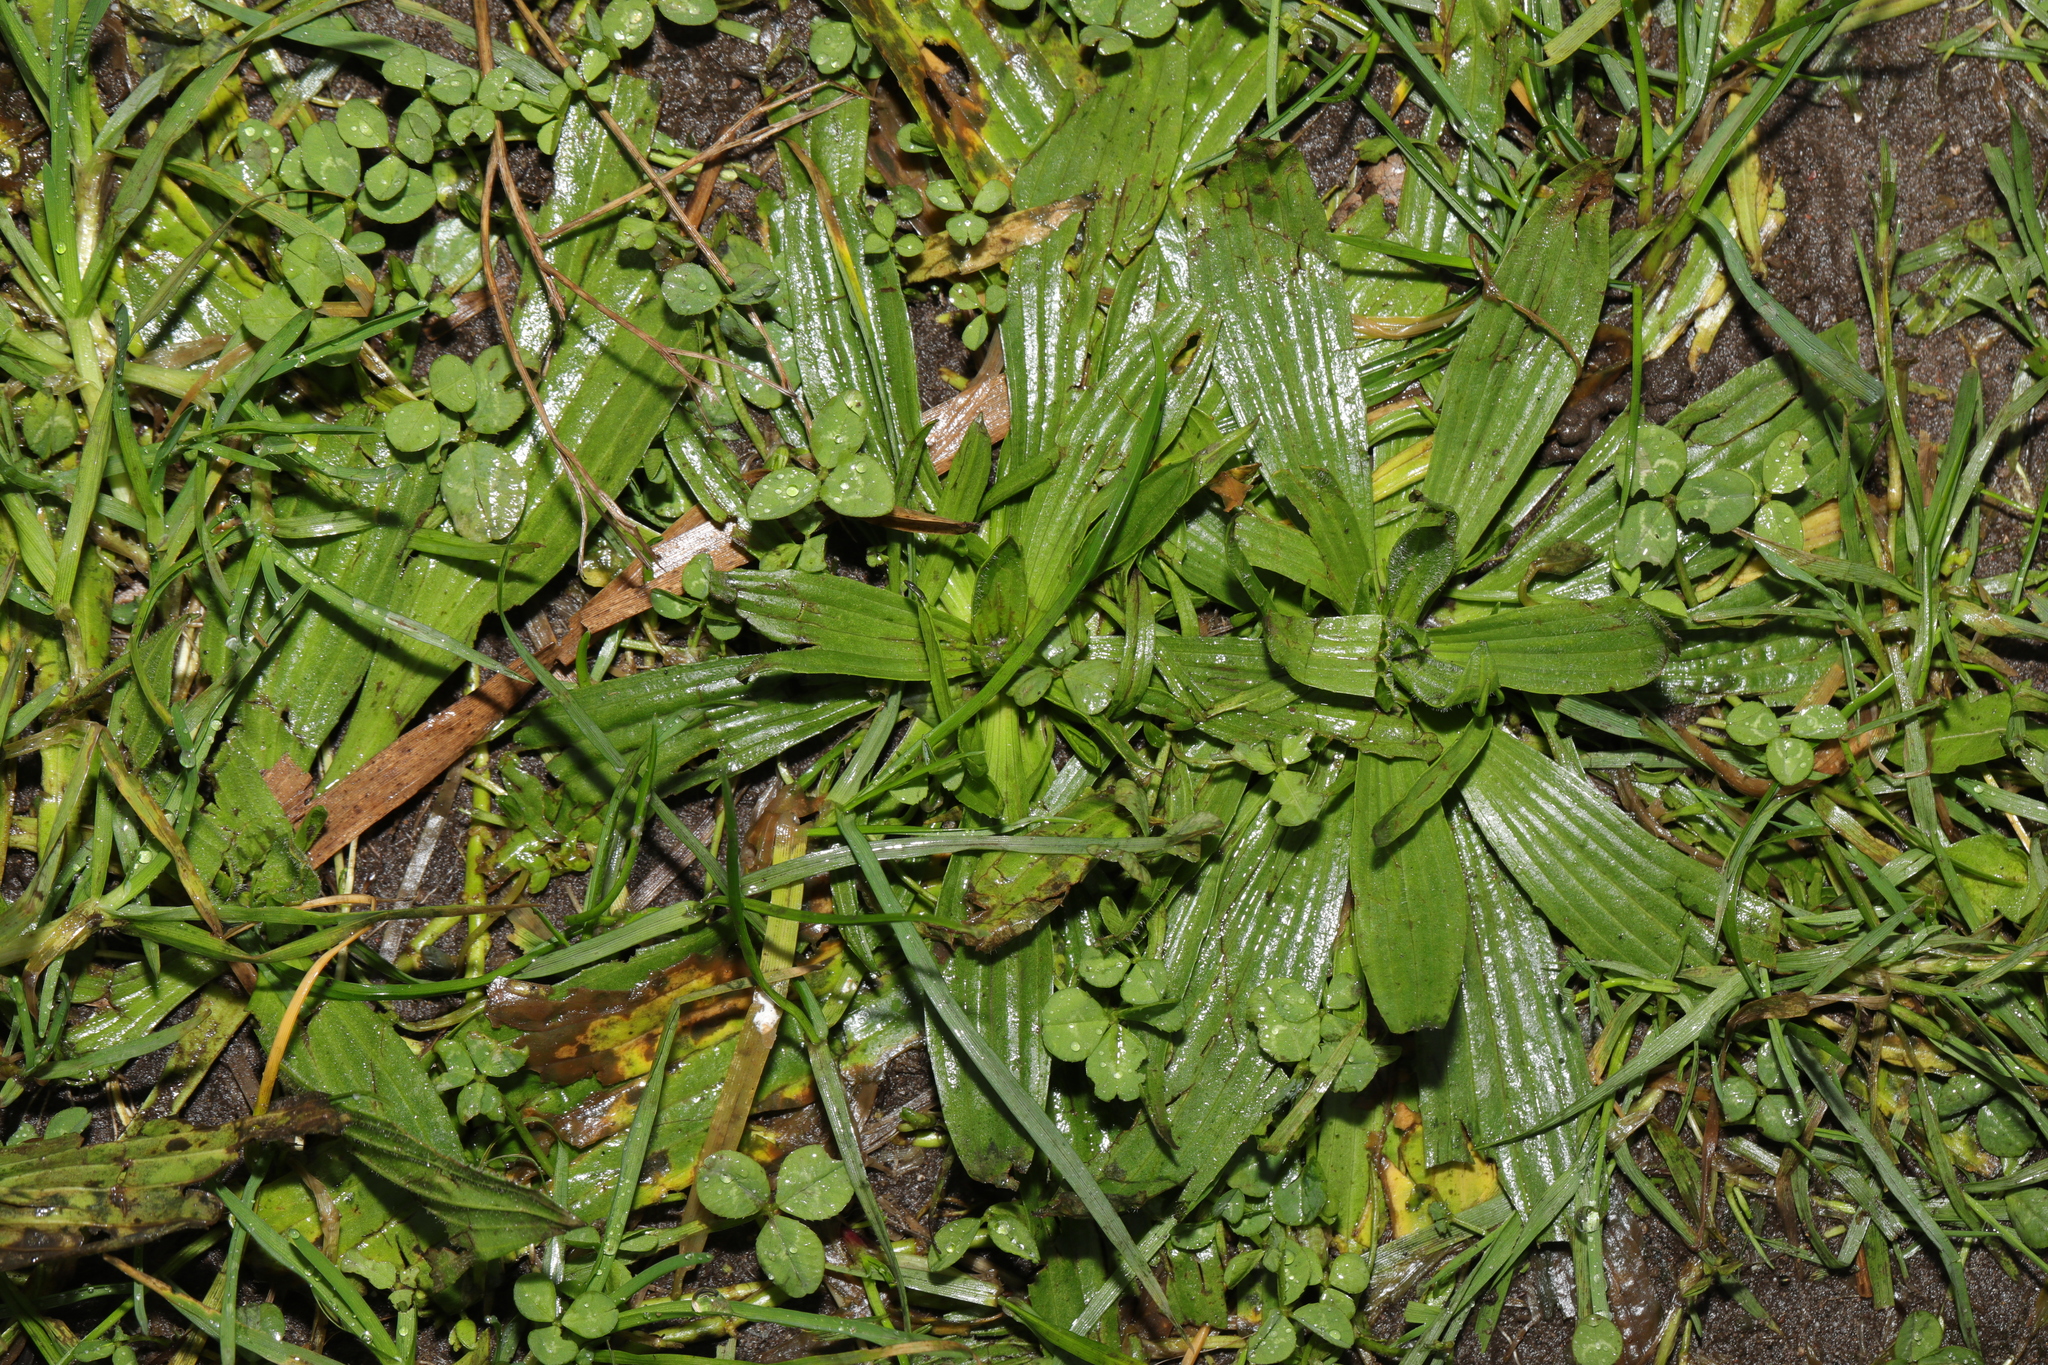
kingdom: Plantae
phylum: Tracheophyta
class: Magnoliopsida
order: Lamiales
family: Plantaginaceae
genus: Plantago
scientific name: Plantago lanceolata
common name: Ribwort plantain
